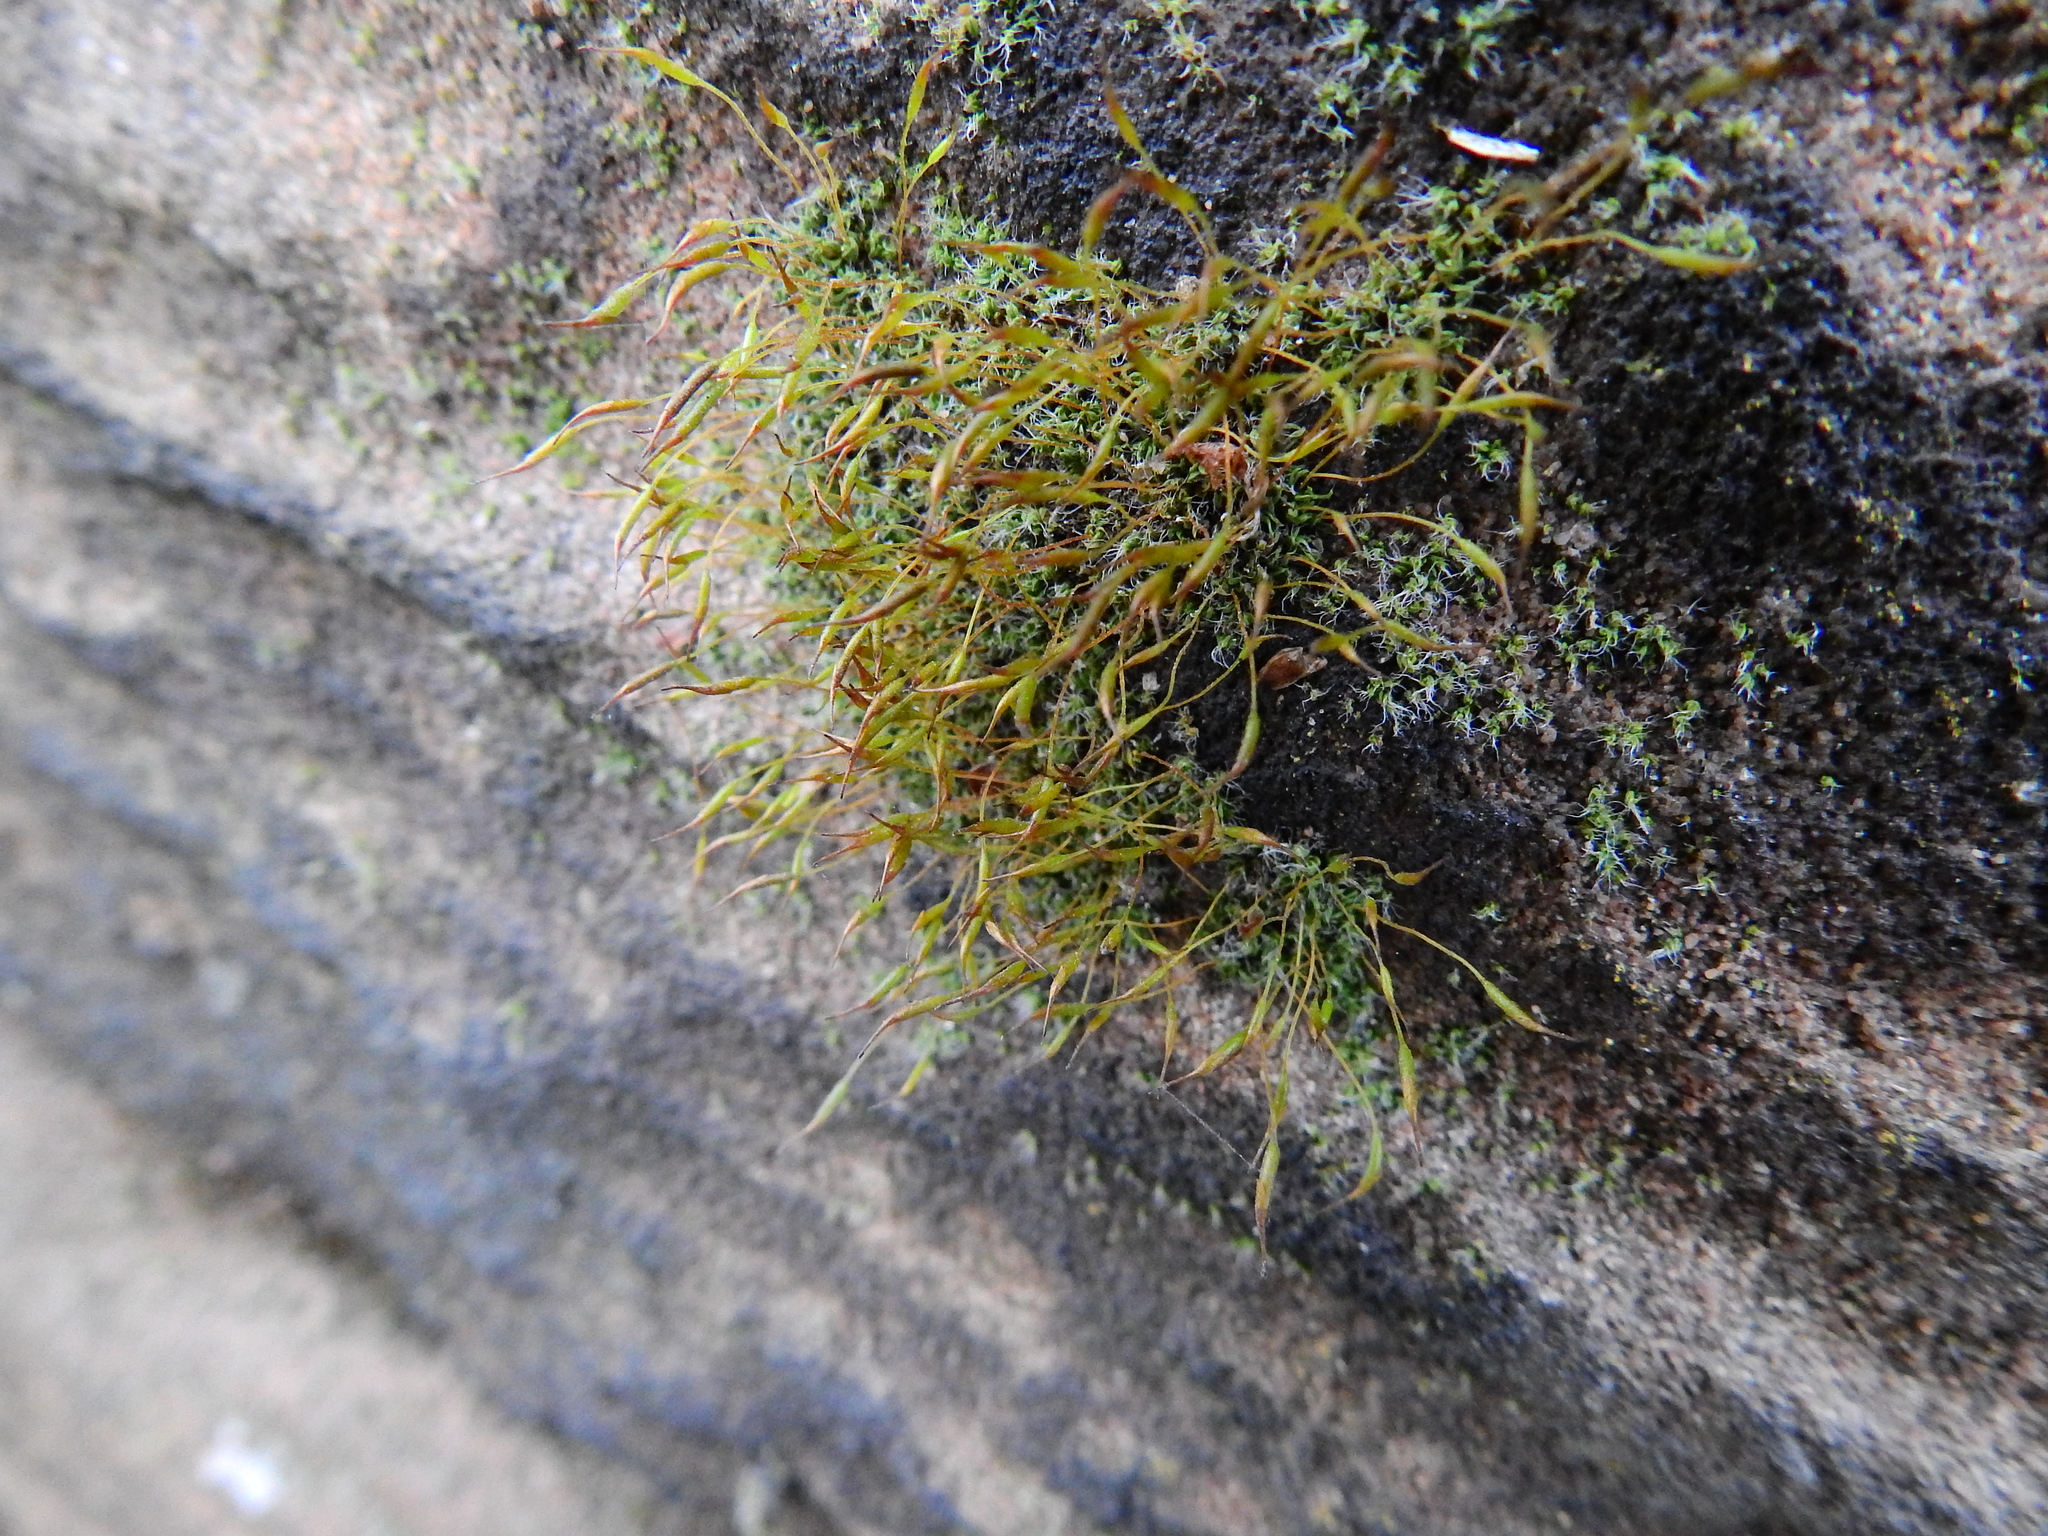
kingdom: Plantae
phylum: Bryophyta
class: Bryopsida
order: Pottiales
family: Pottiaceae
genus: Tortula
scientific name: Tortula muralis
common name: Wall screw-moss
